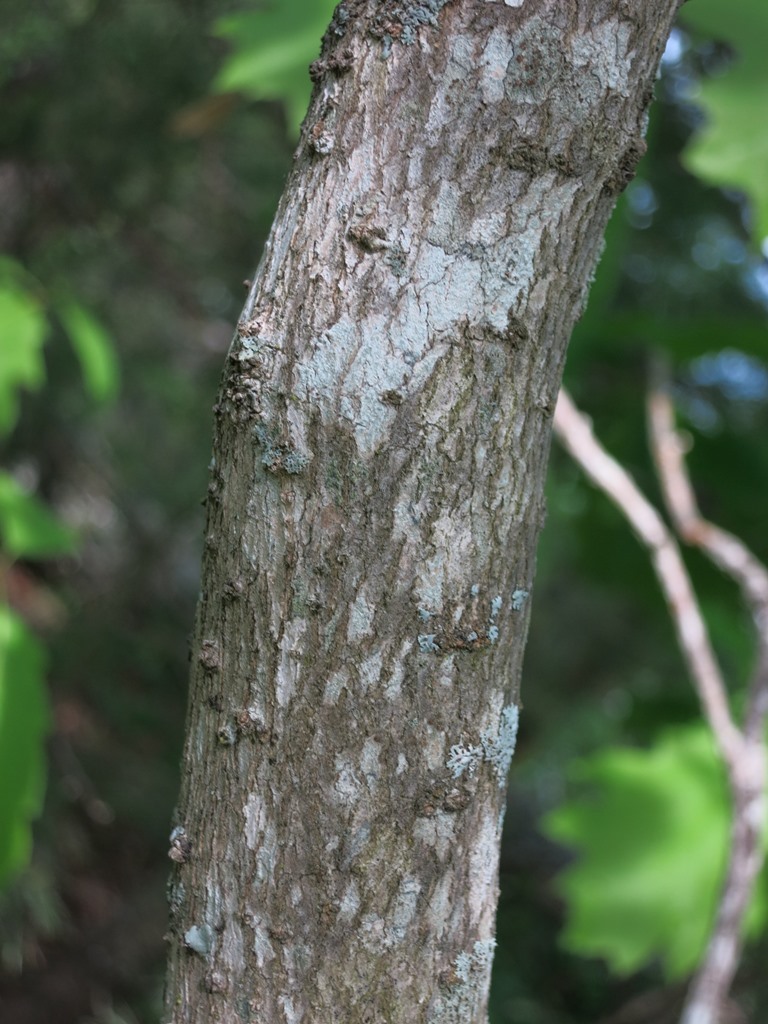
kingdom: Plantae
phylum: Tracheophyta
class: Magnoliopsida
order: Lamiales
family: Oleaceae
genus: Chionanthus
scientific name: Chionanthus virginicus
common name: American fringetree
